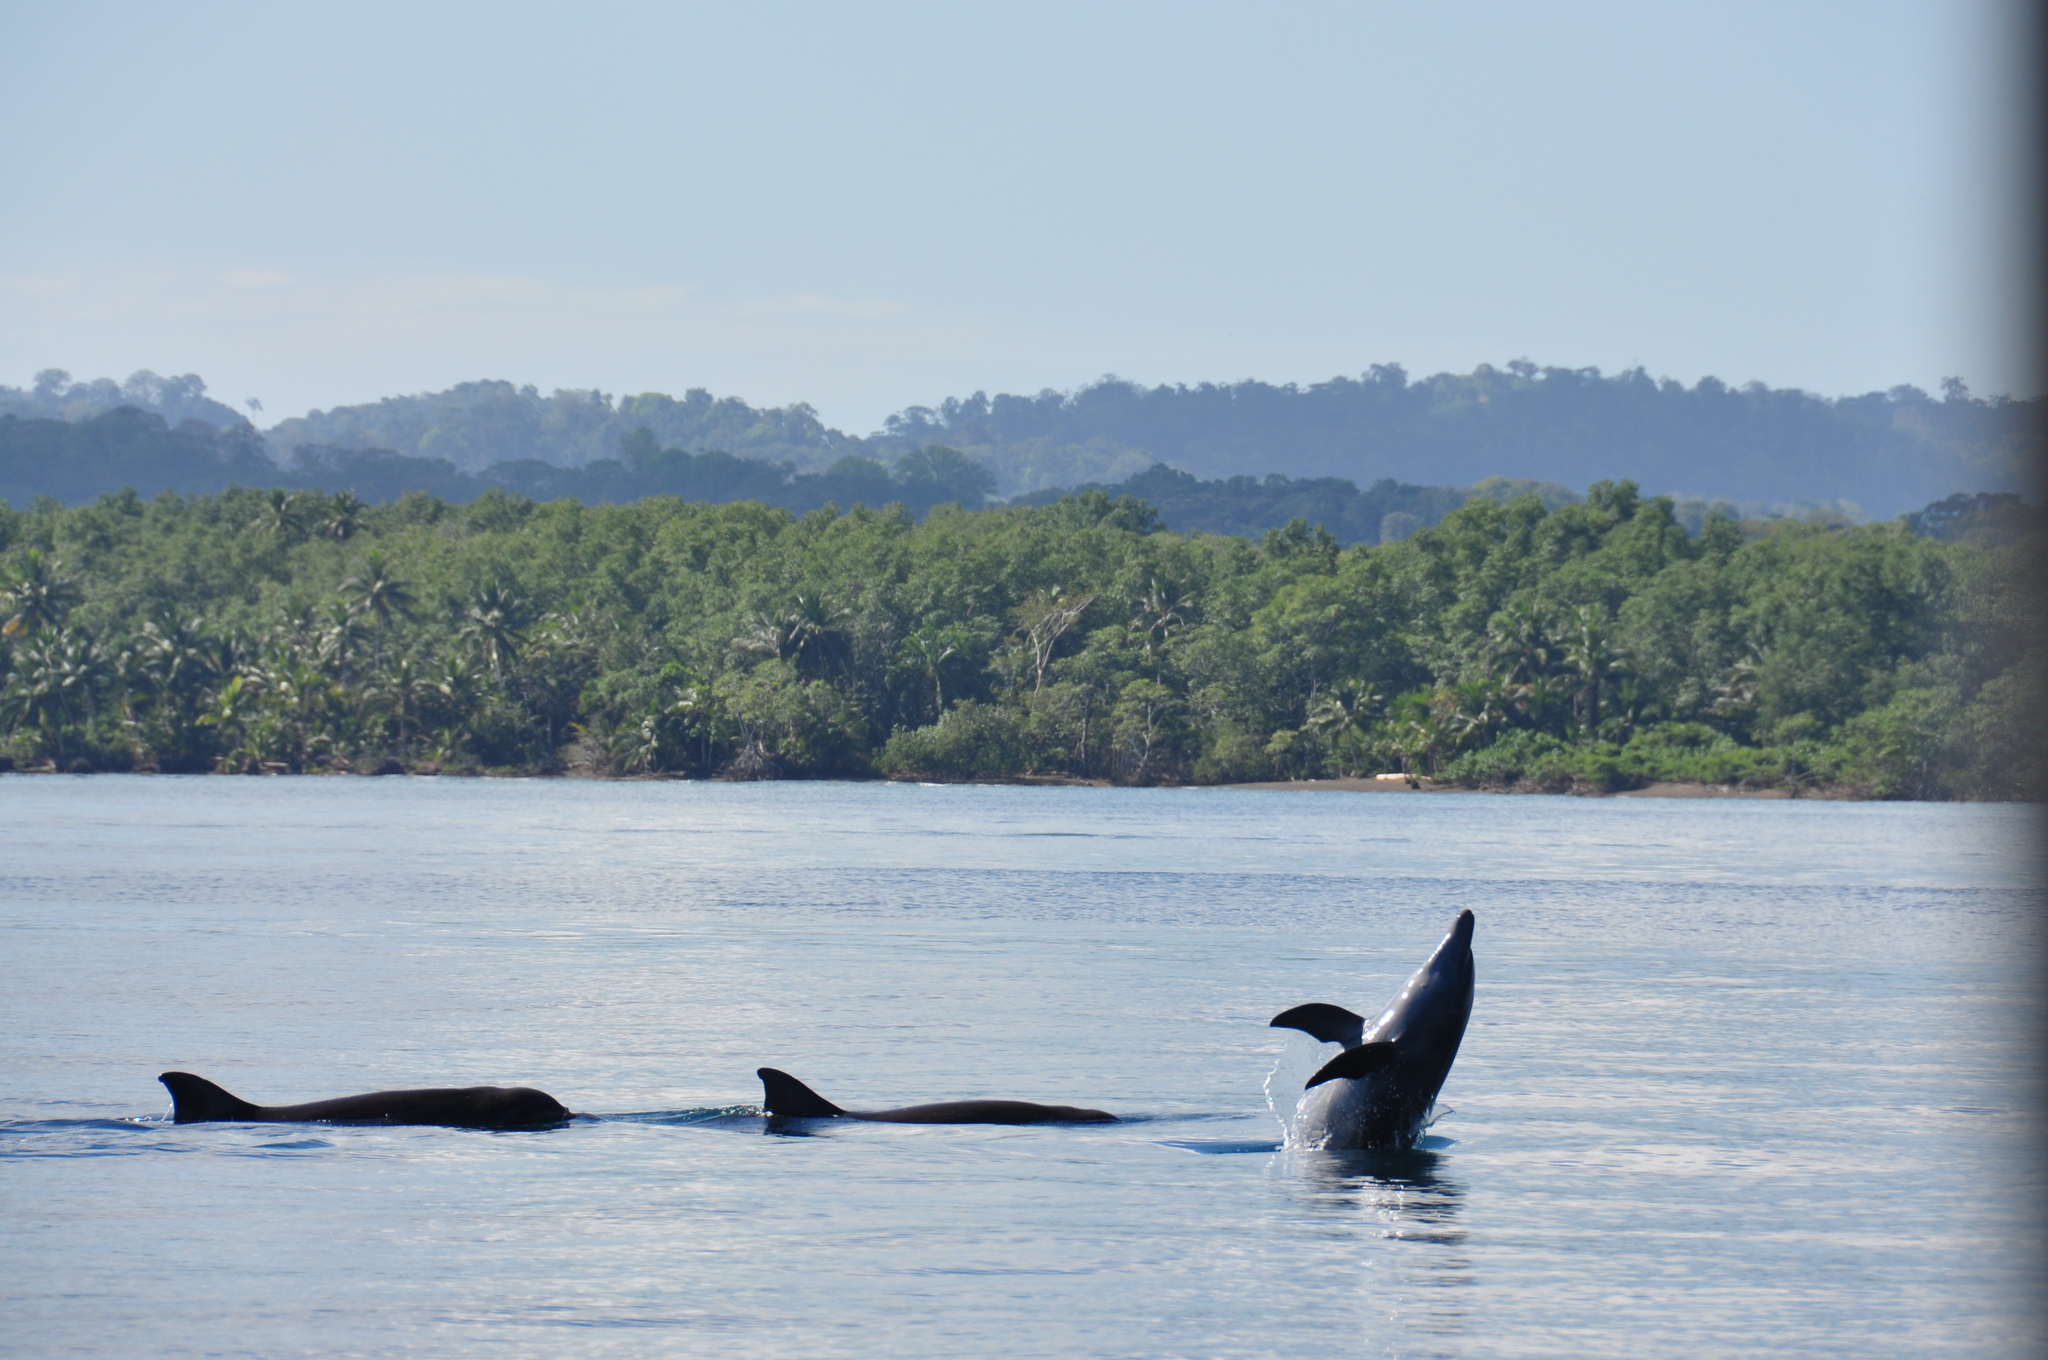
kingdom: Animalia
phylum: Chordata
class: Mammalia
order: Cetacea
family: Delphinidae
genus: Stenella
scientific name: Stenella attenuata
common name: Pantropical spotted dolphin
